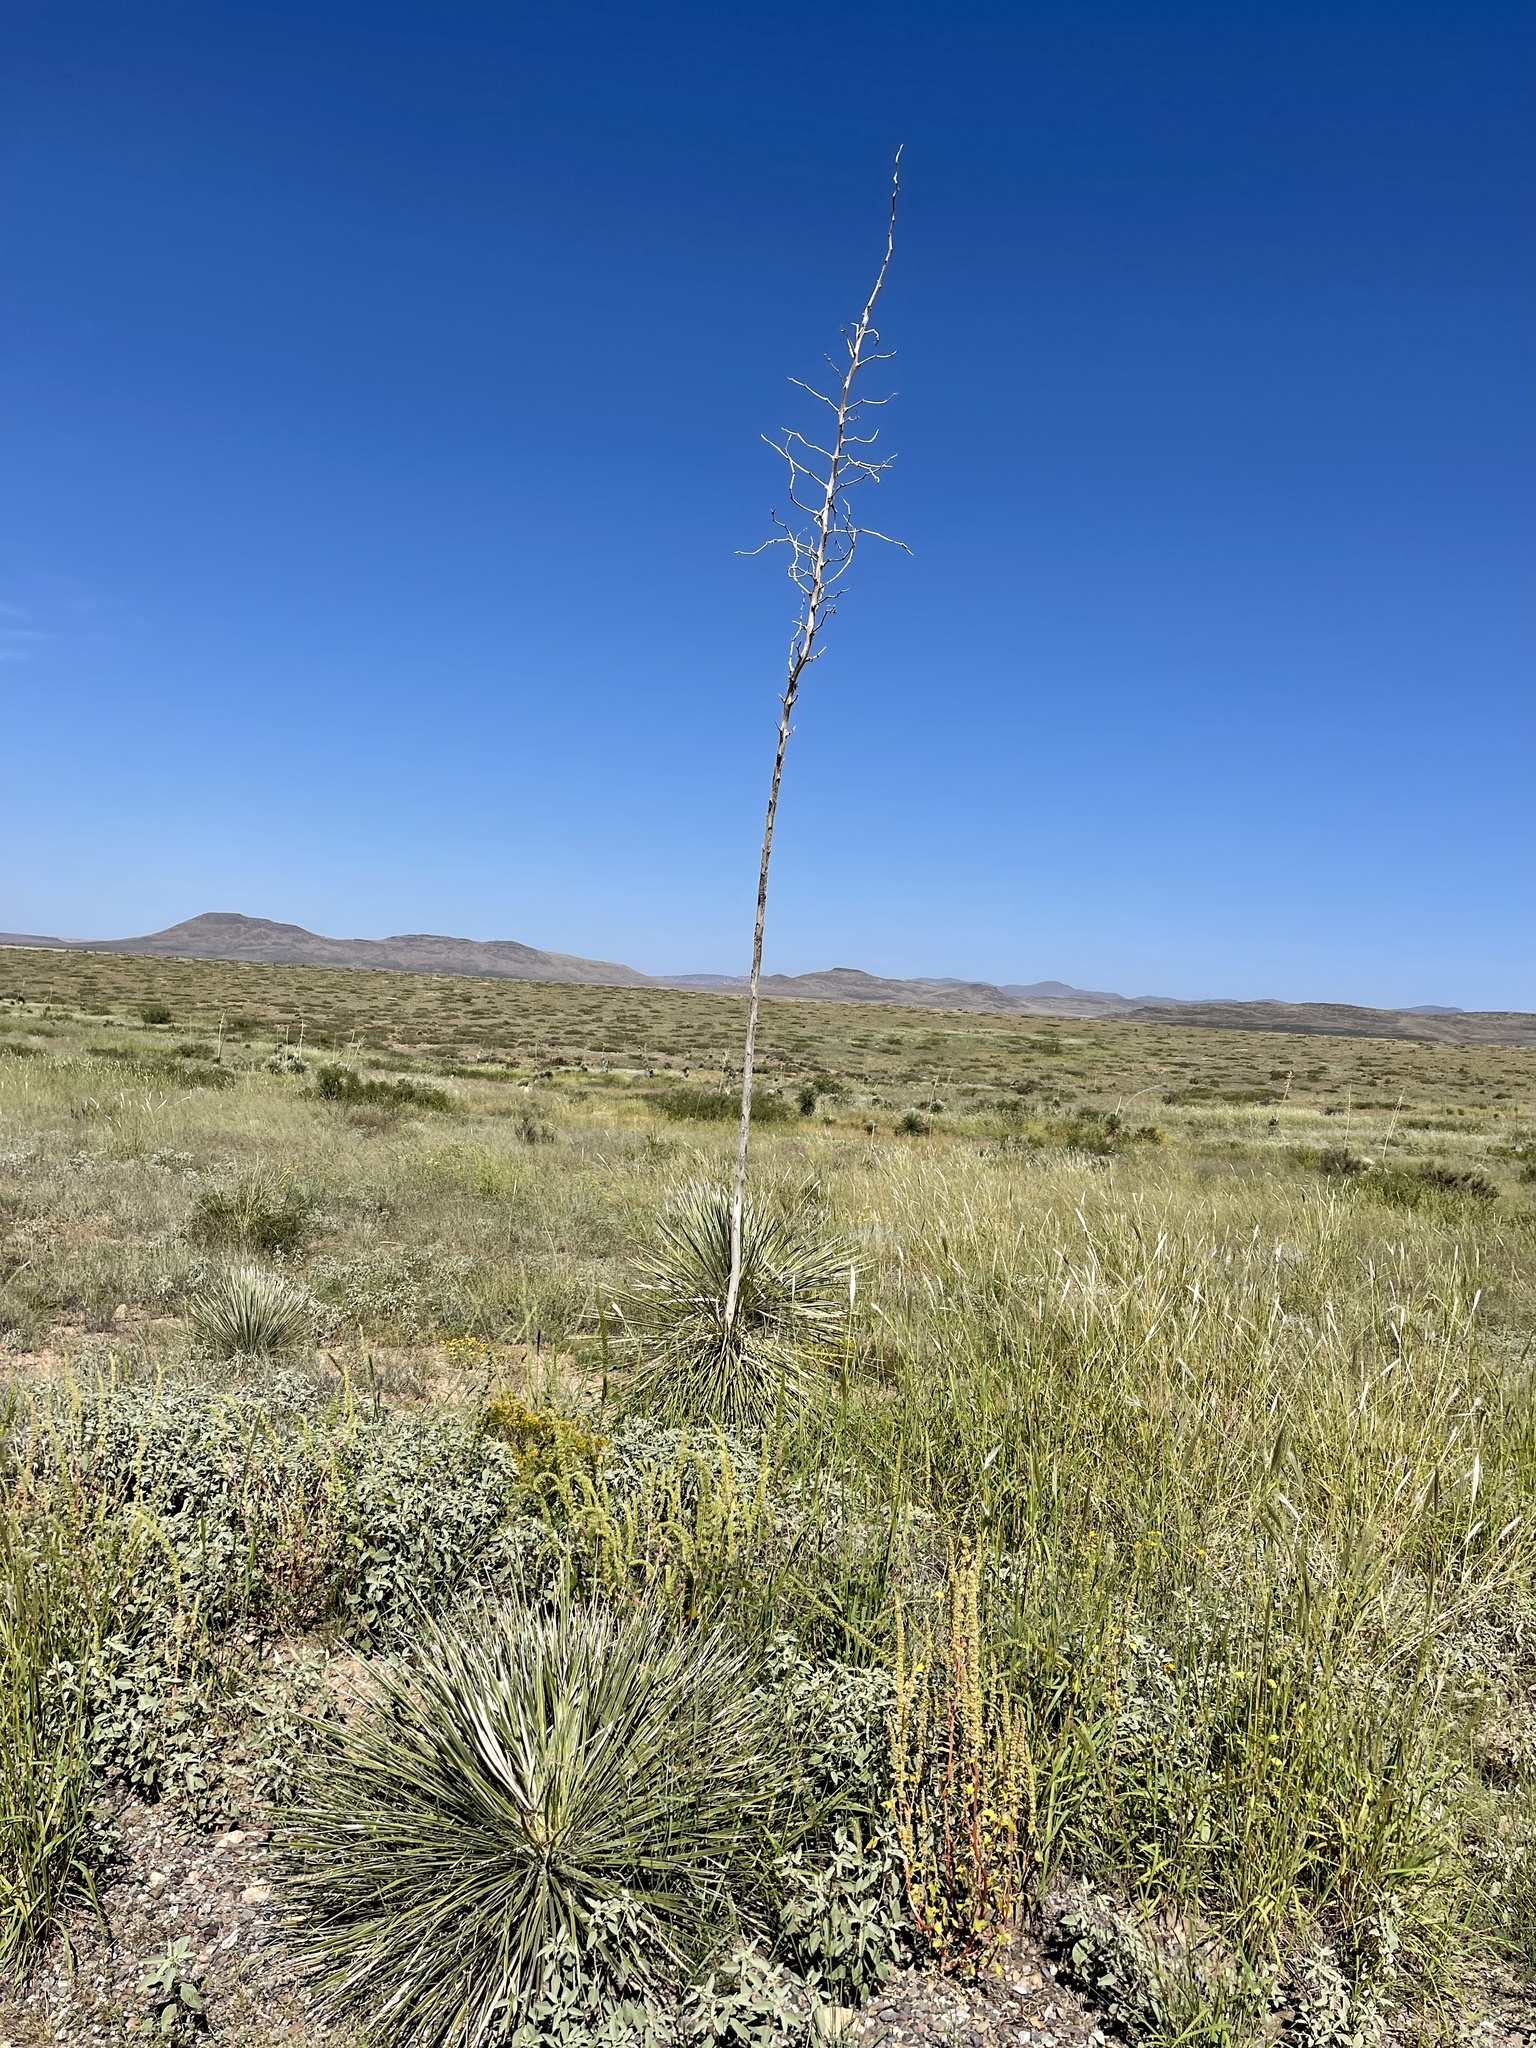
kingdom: Plantae
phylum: Tracheophyta
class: Liliopsida
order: Asparagales
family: Asparagaceae
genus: Yucca
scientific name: Yucca elata
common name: Palmella
